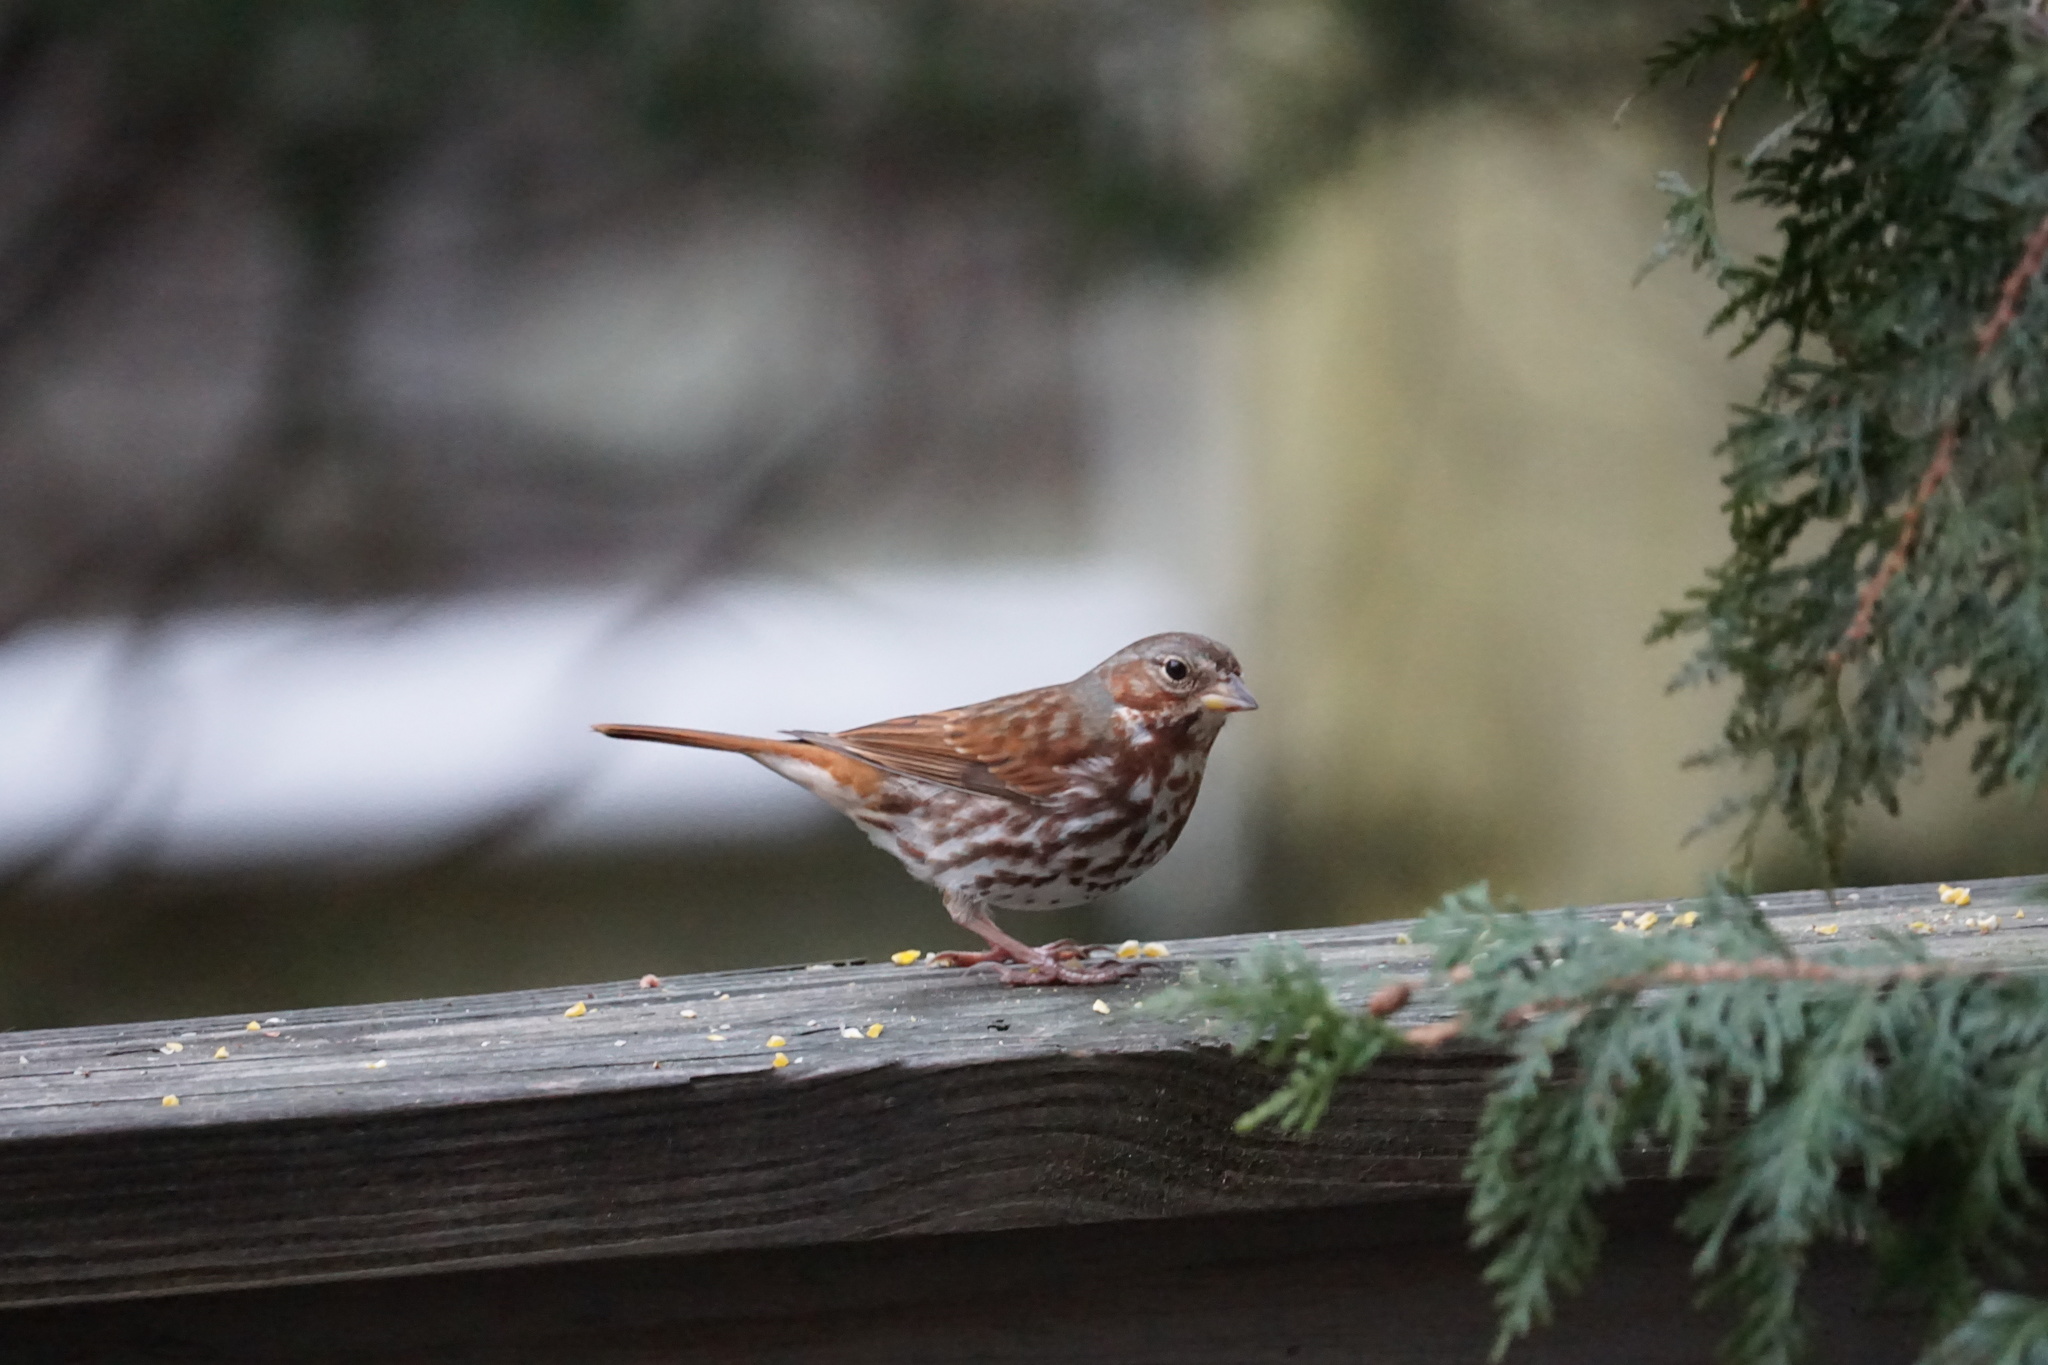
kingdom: Animalia
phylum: Chordata
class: Aves
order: Passeriformes
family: Passerellidae
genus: Passerella
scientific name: Passerella iliaca
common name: Fox sparrow
